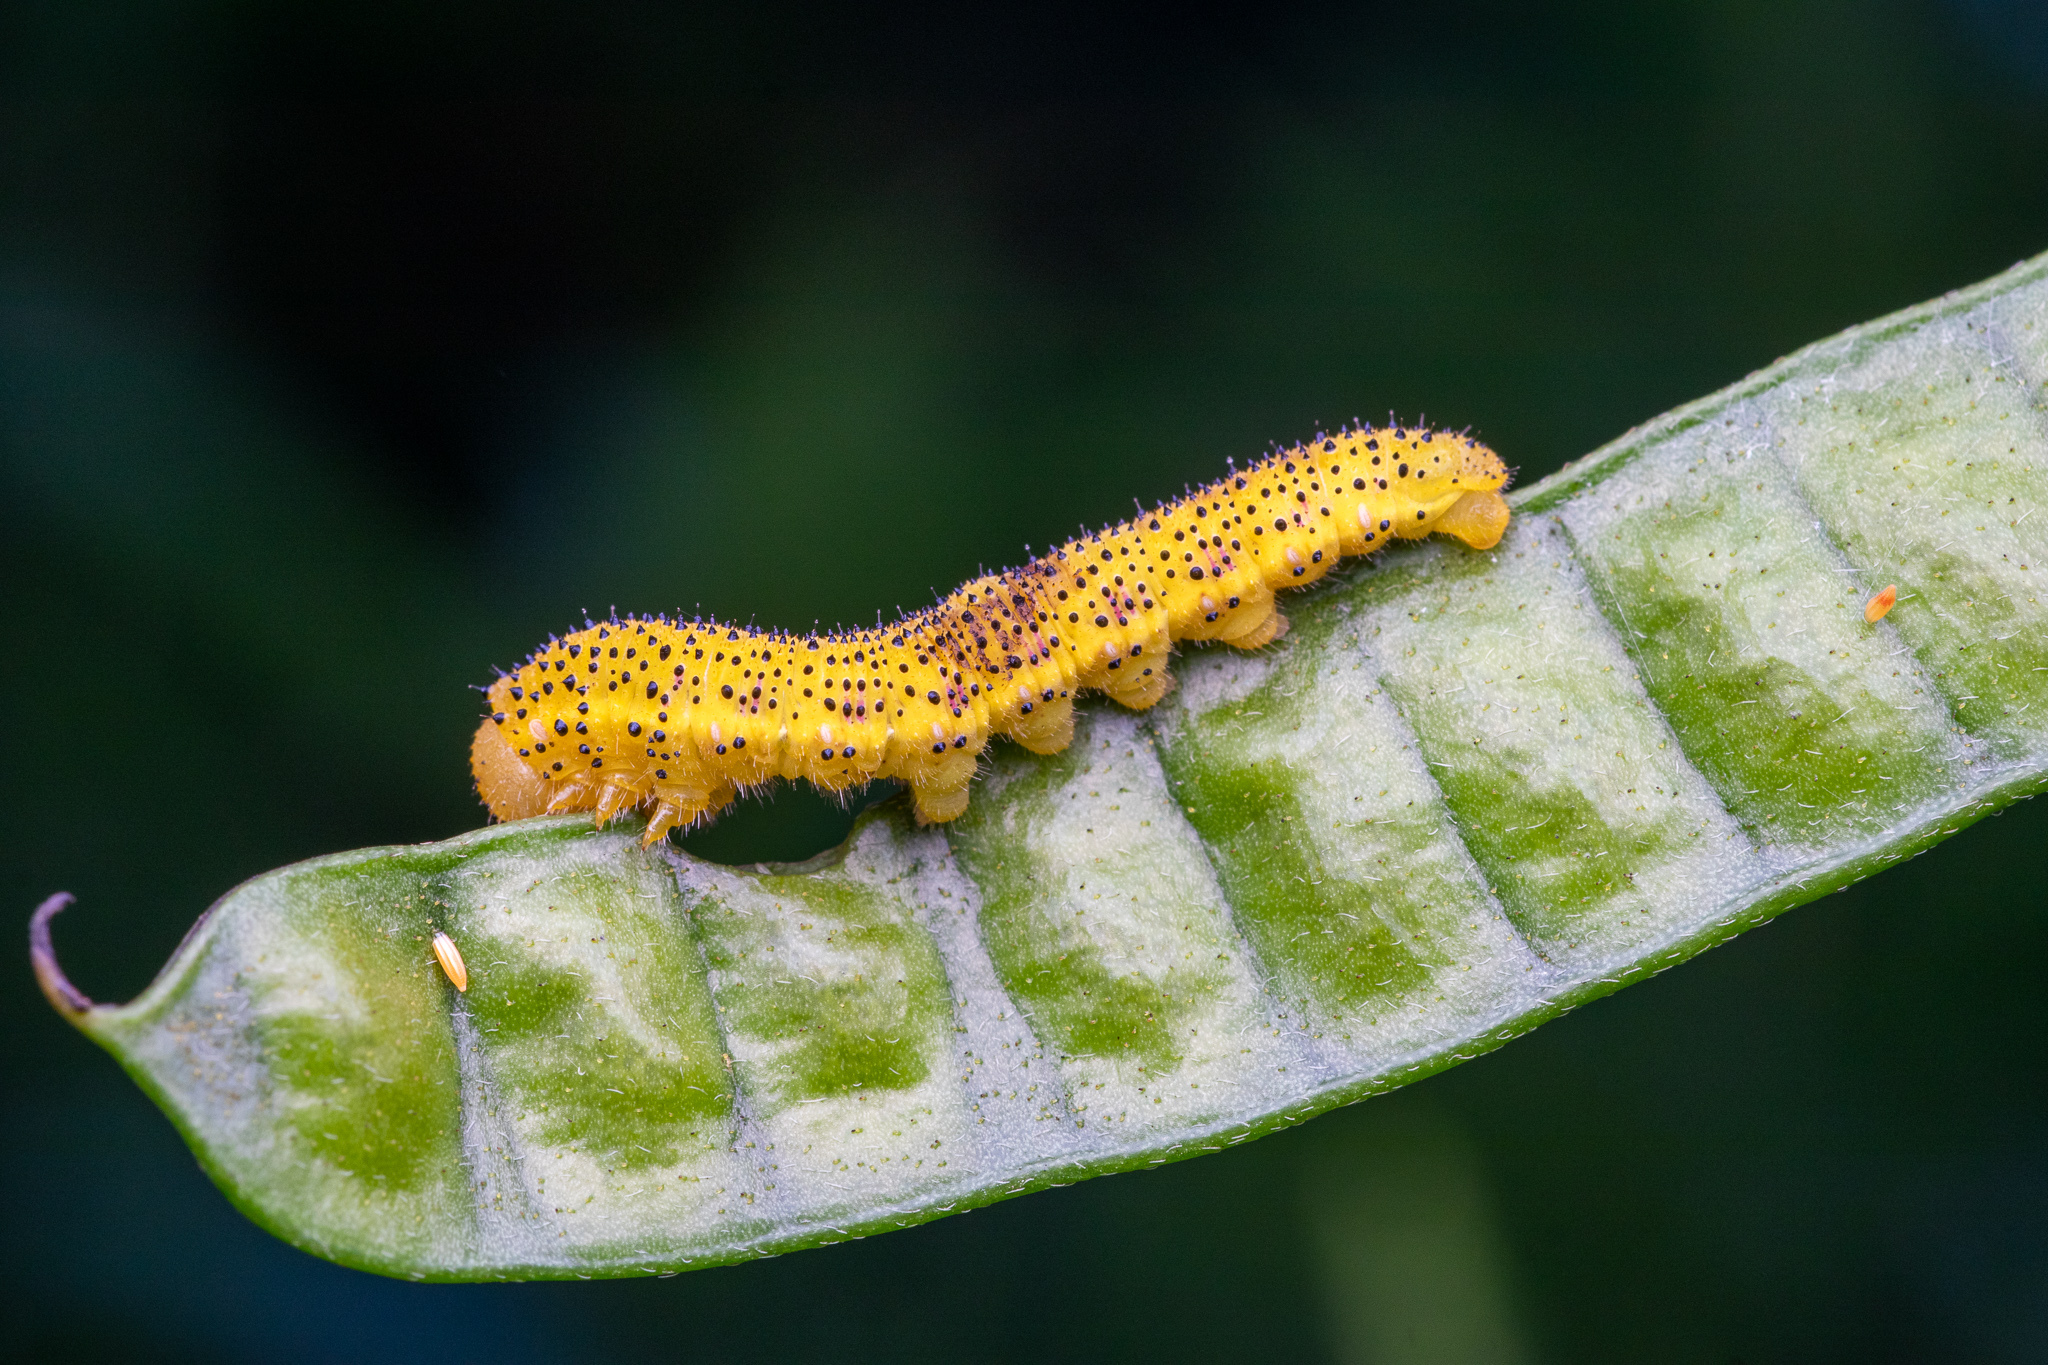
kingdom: Animalia
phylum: Arthropoda
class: Insecta
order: Lepidoptera
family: Pieridae
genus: Phoebis
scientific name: Phoebis sennae
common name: Cloudless sulphur
